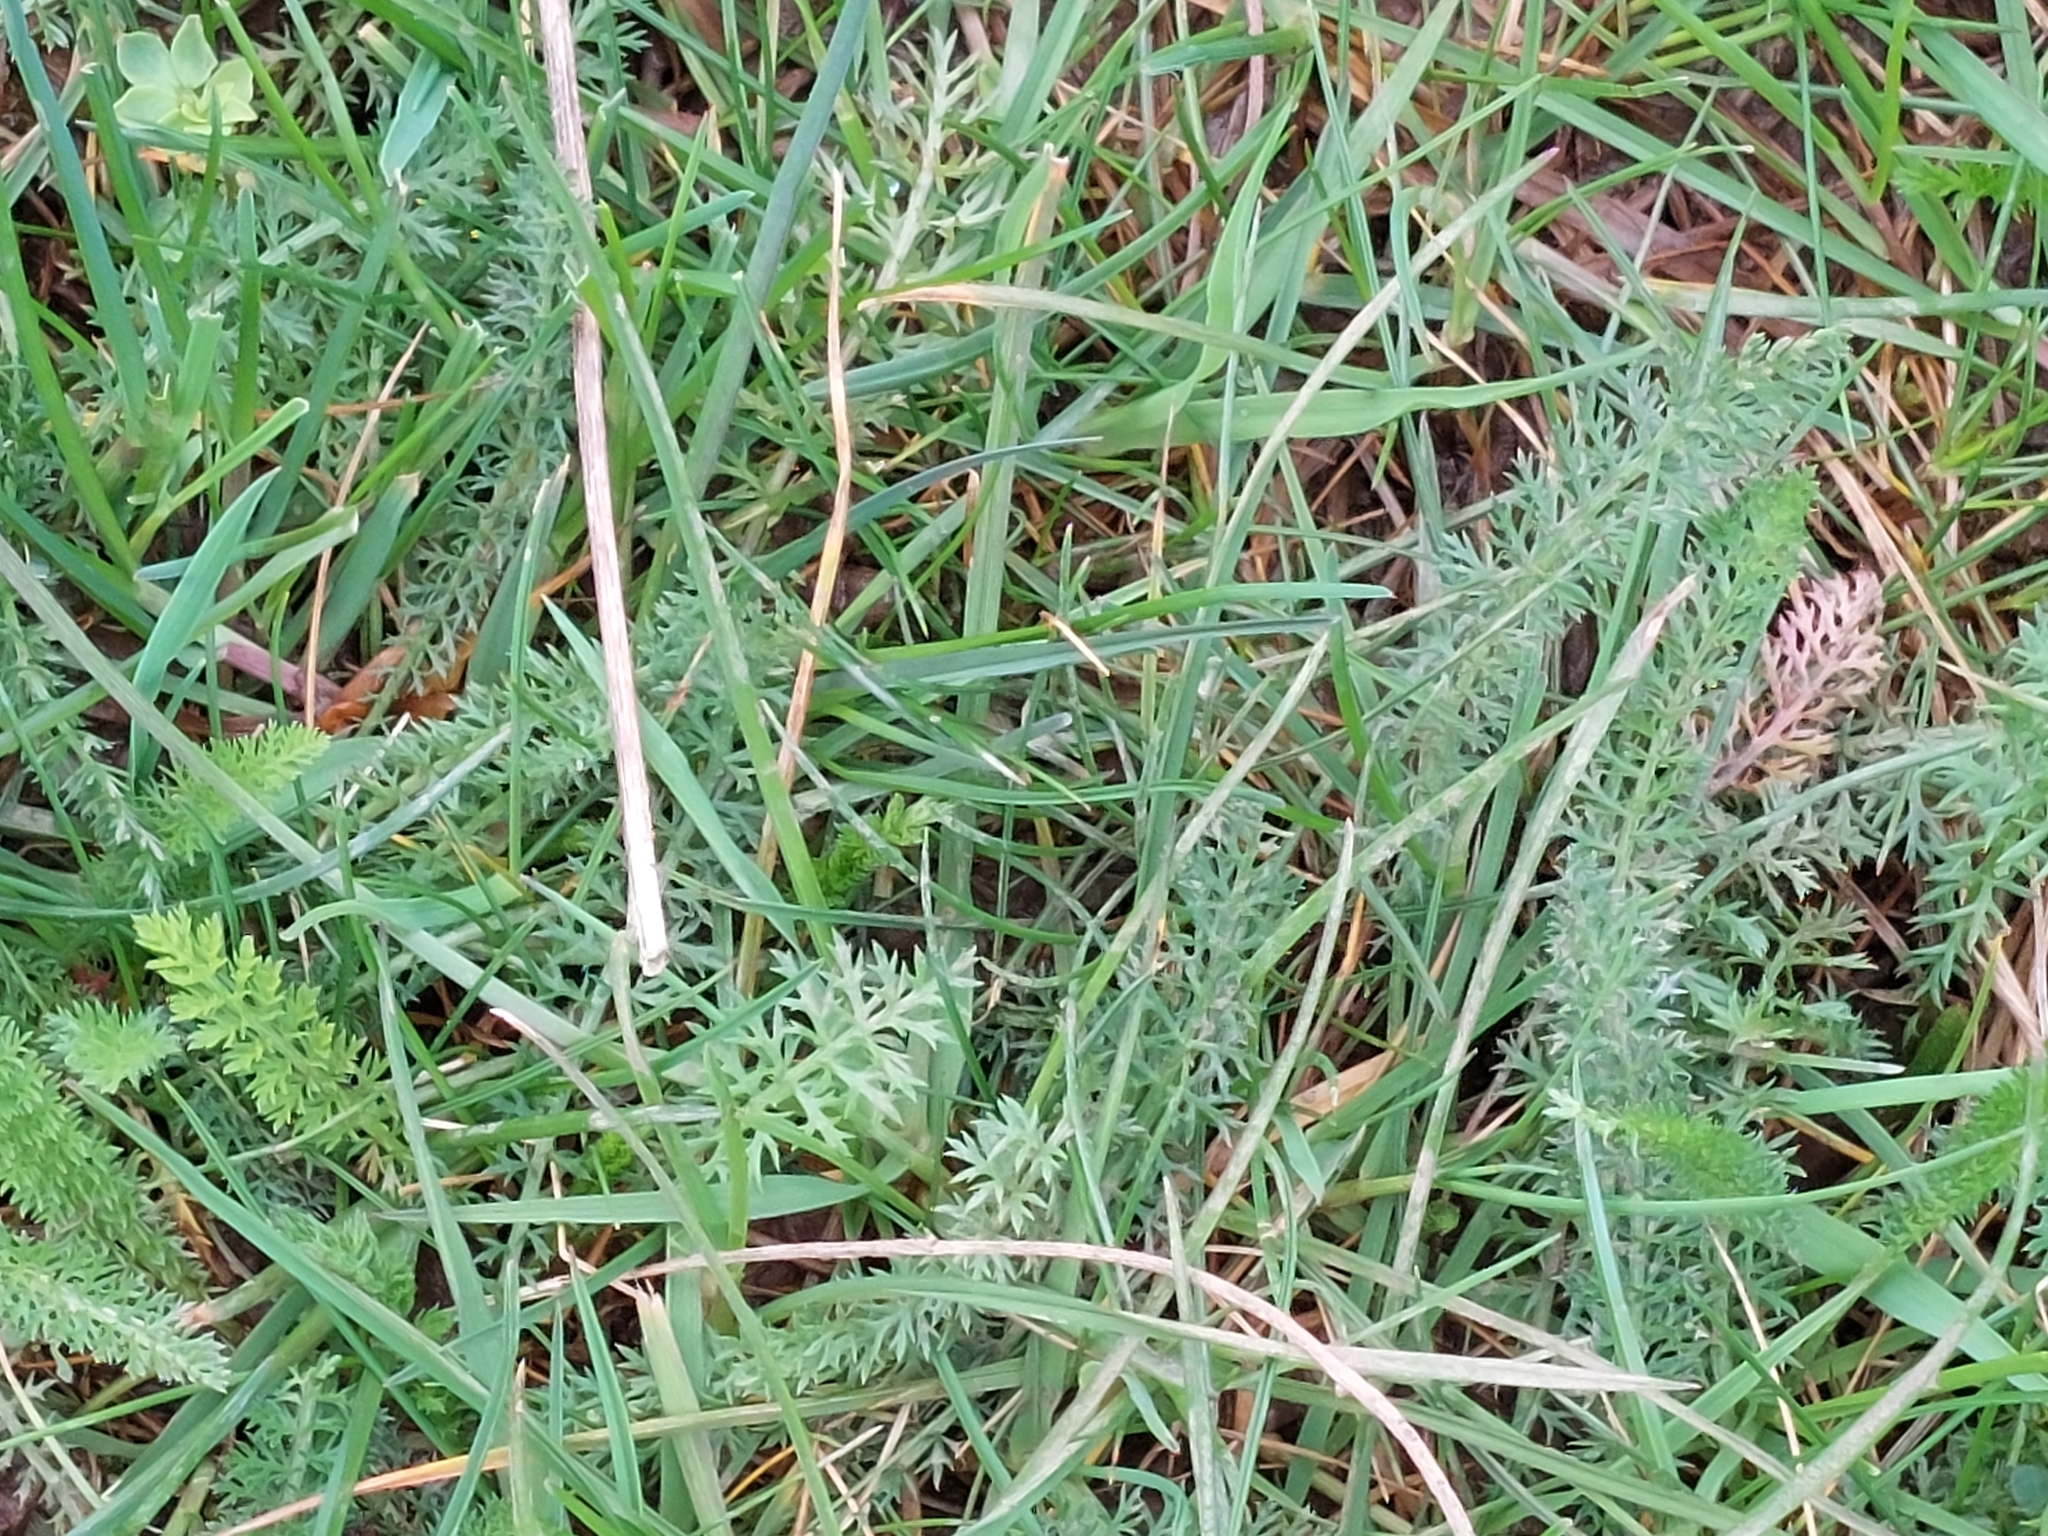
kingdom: Plantae
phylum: Tracheophyta
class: Magnoliopsida
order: Asterales
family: Asteraceae
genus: Achillea
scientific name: Achillea millefolium
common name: Yarrow
